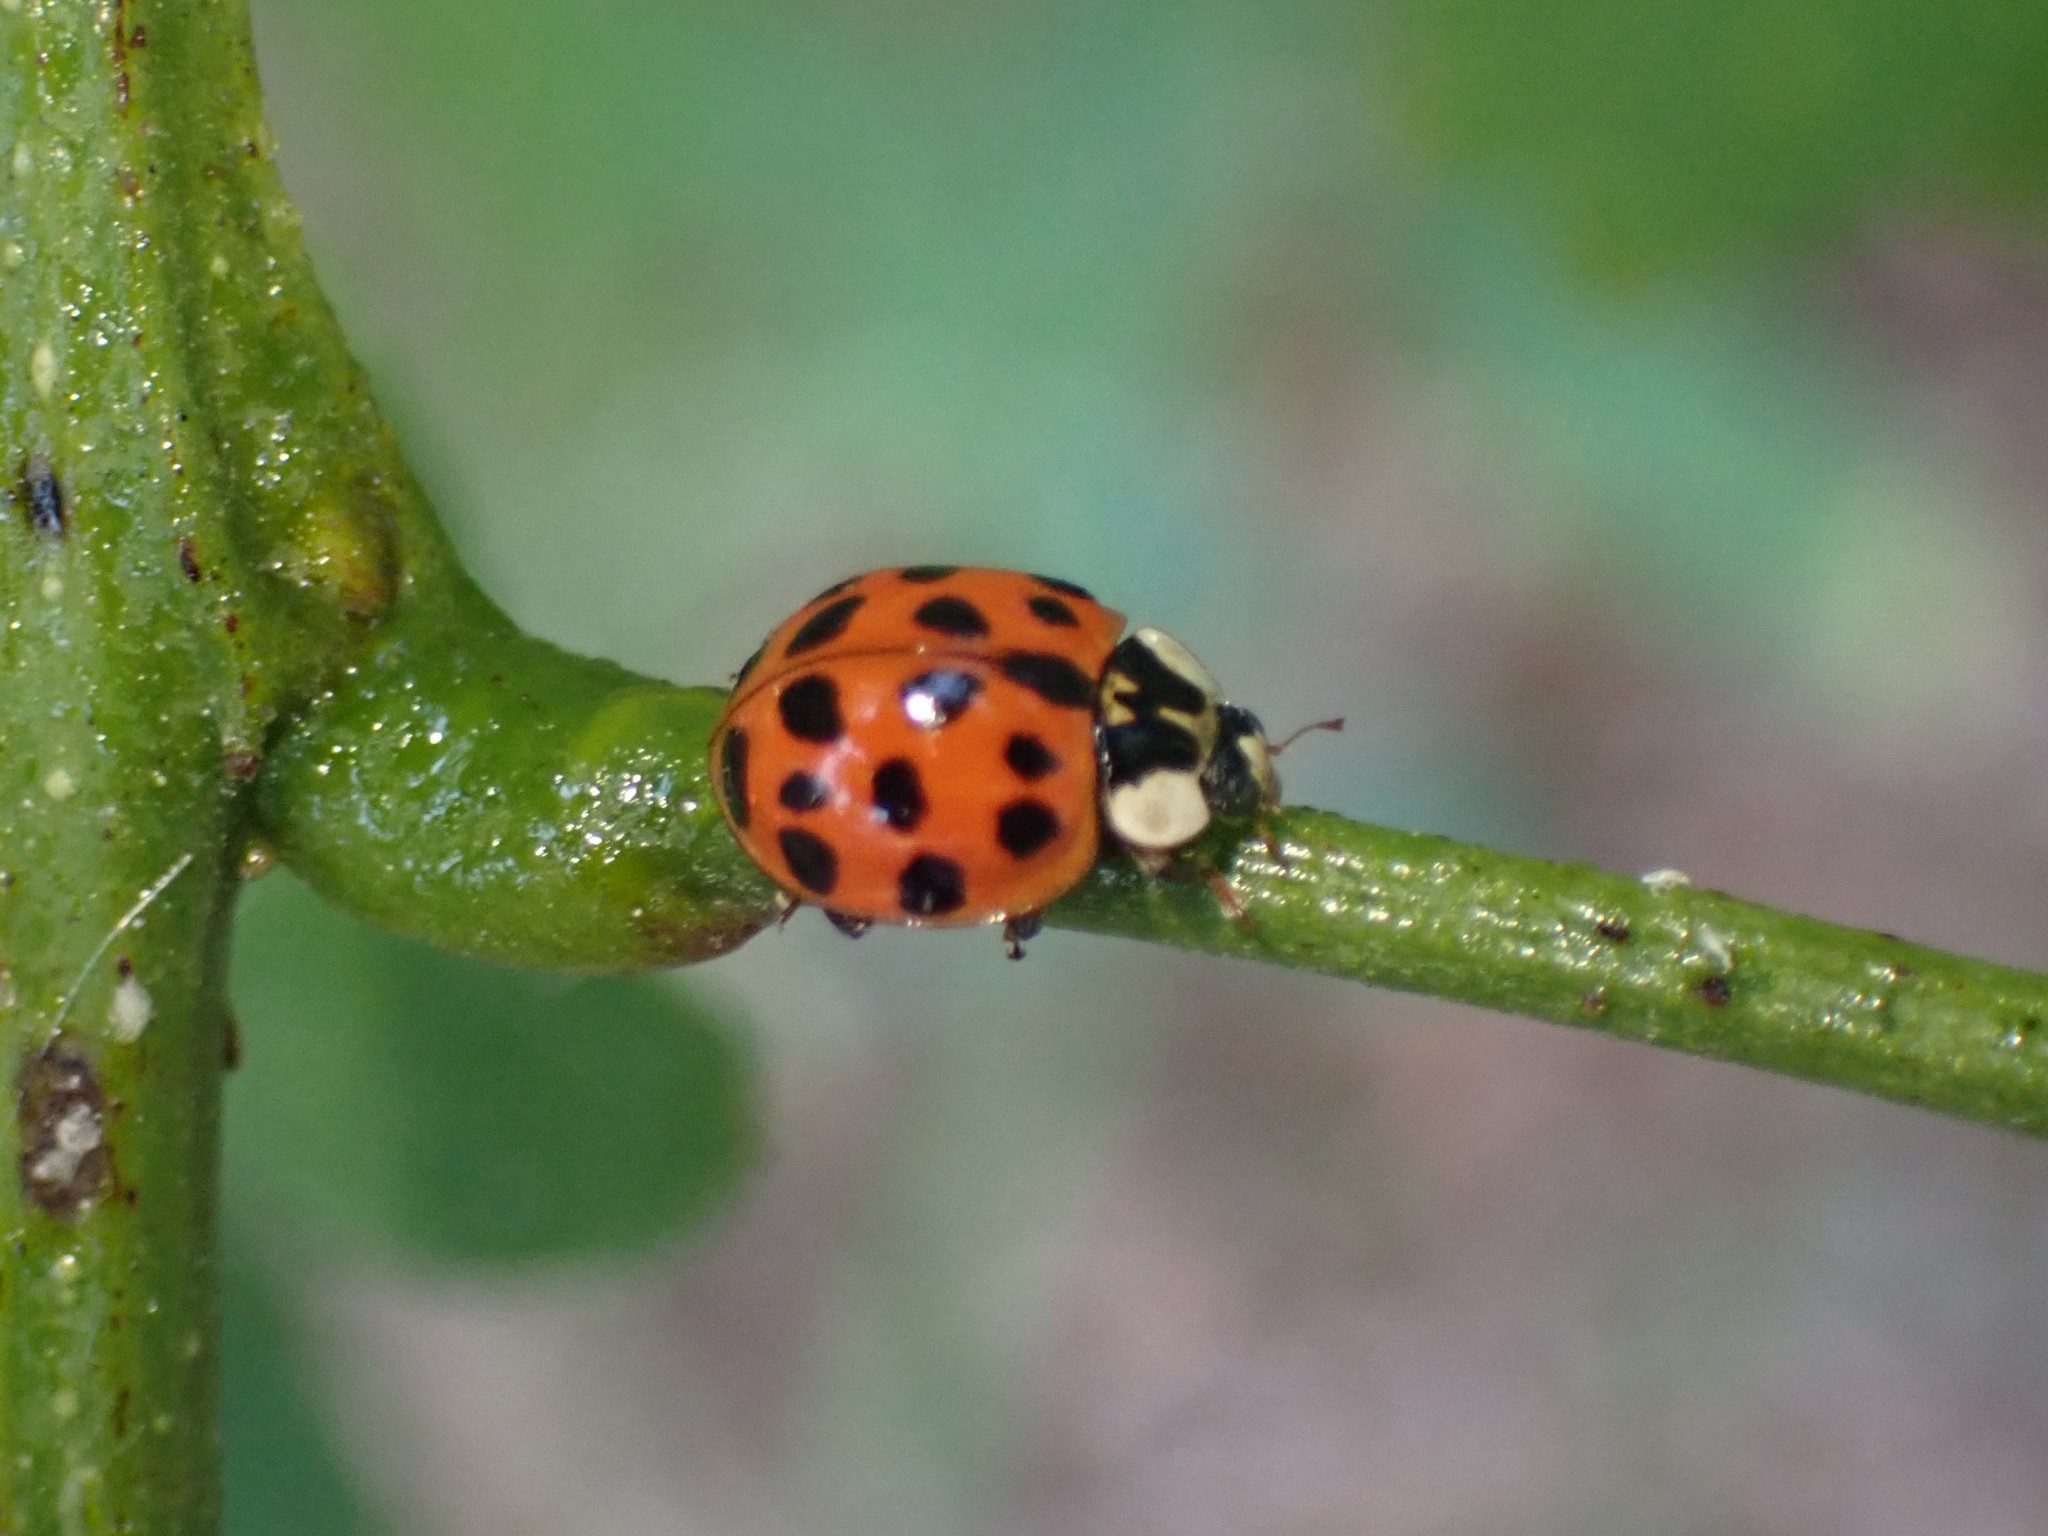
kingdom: Animalia
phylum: Arthropoda
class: Insecta
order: Coleoptera
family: Coccinellidae
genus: Harmonia
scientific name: Harmonia axyridis
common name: Harlequin ladybird
